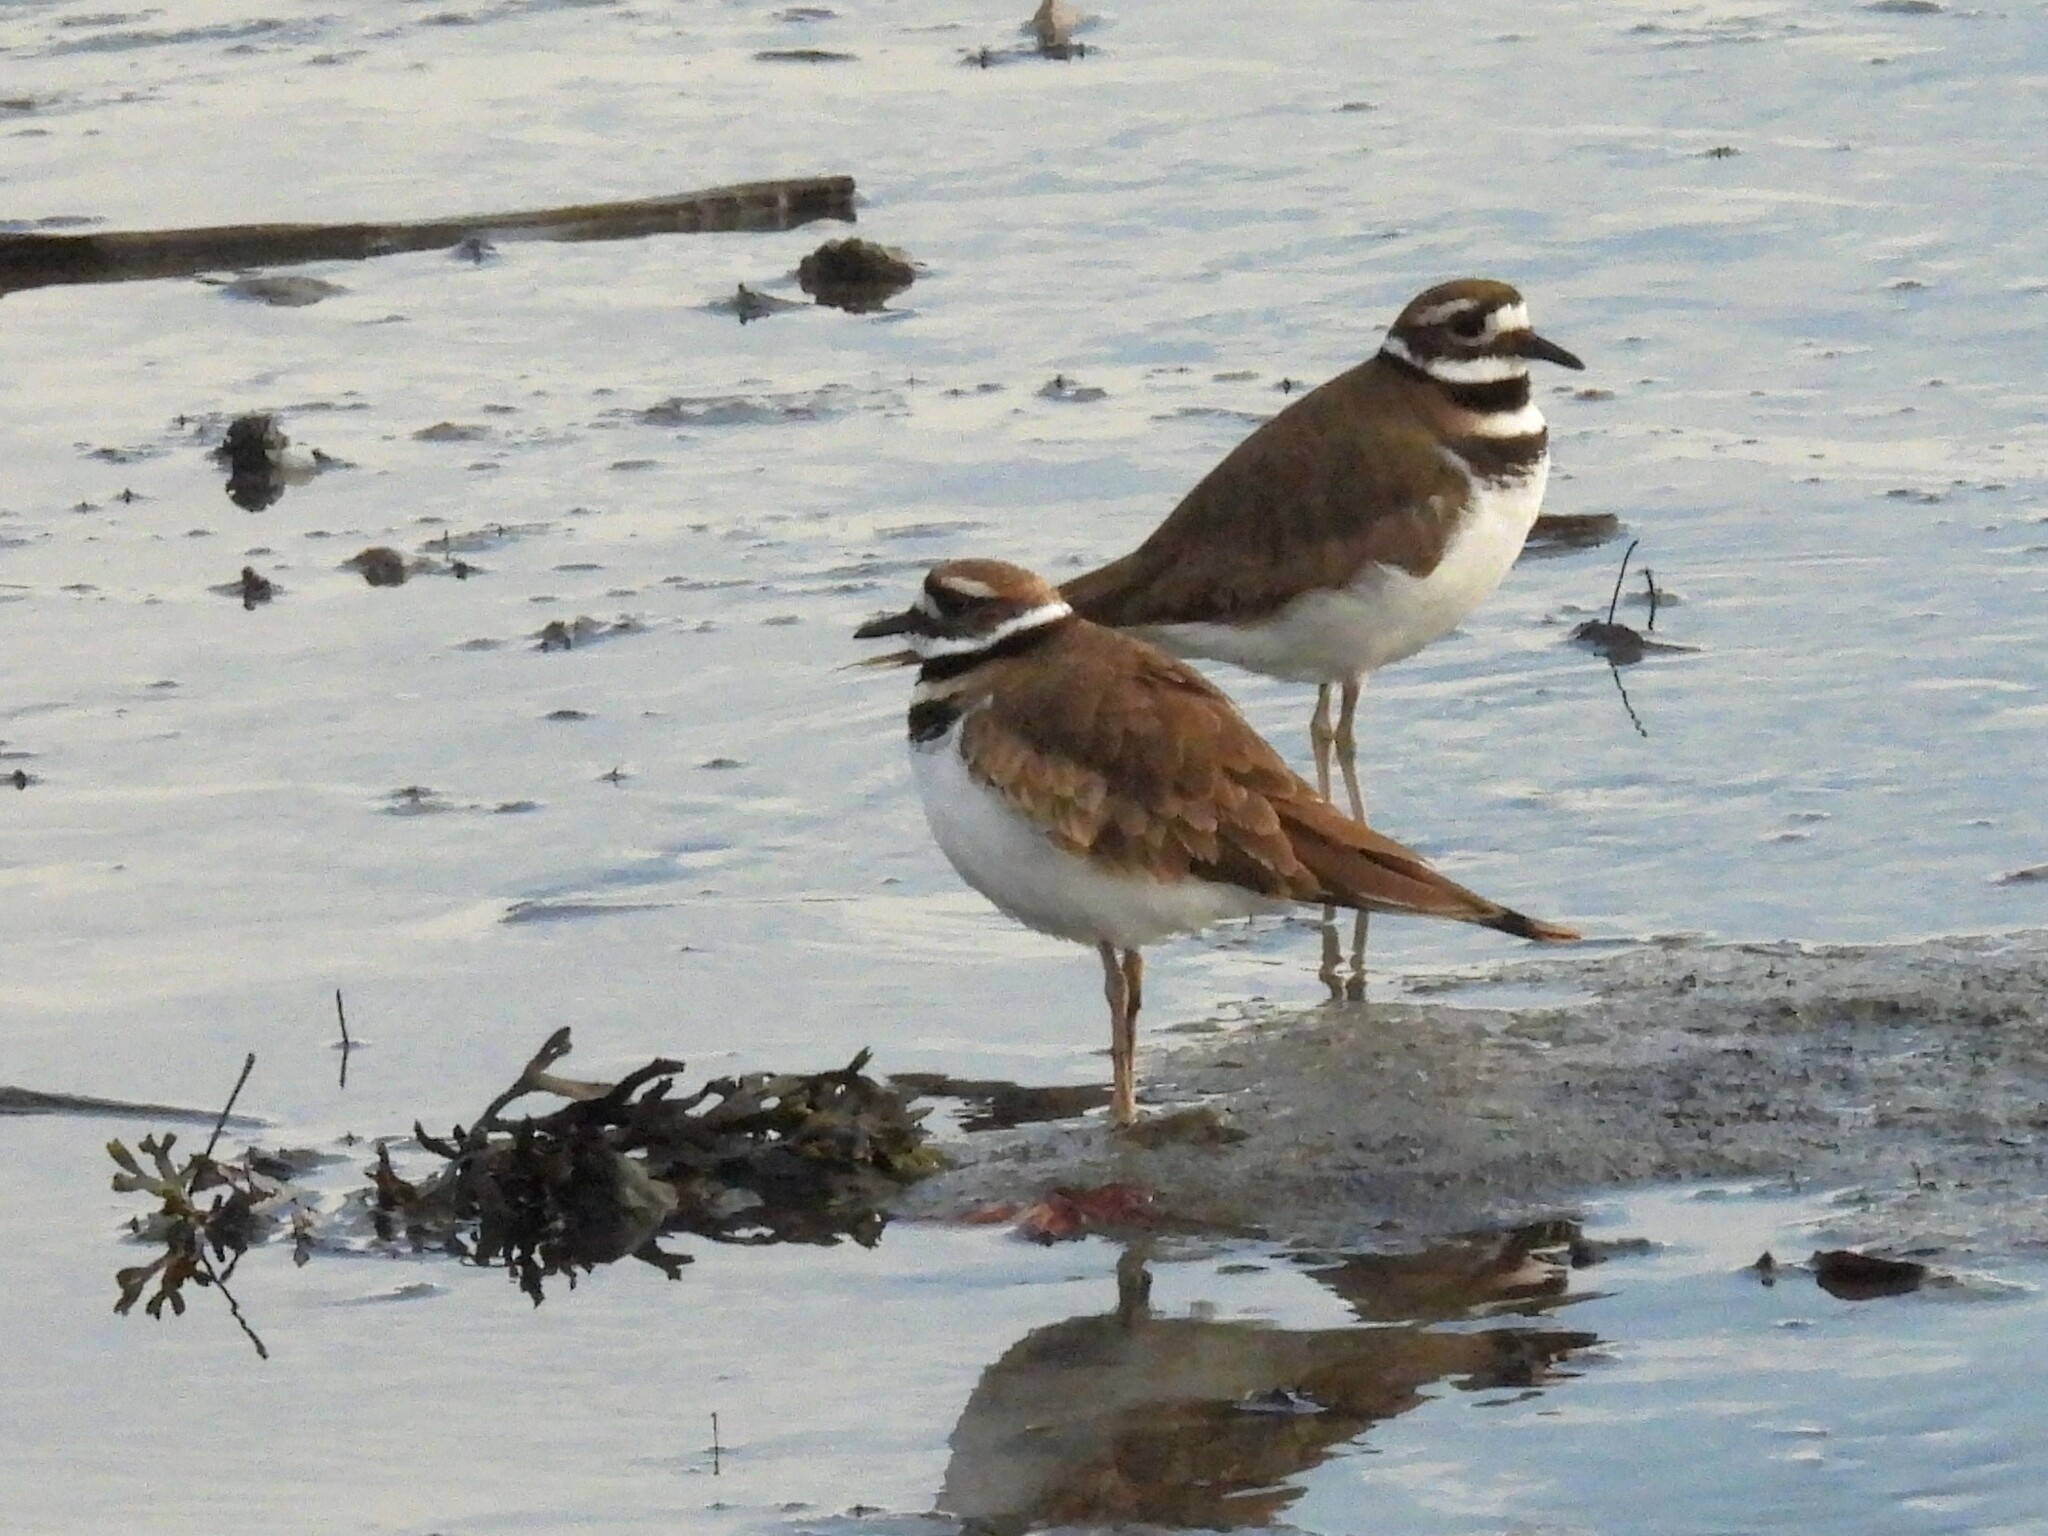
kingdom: Animalia
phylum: Chordata
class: Aves
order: Charadriiformes
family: Charadriidae
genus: Charadrius
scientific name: Charadrius vociferus
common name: Killdeer
